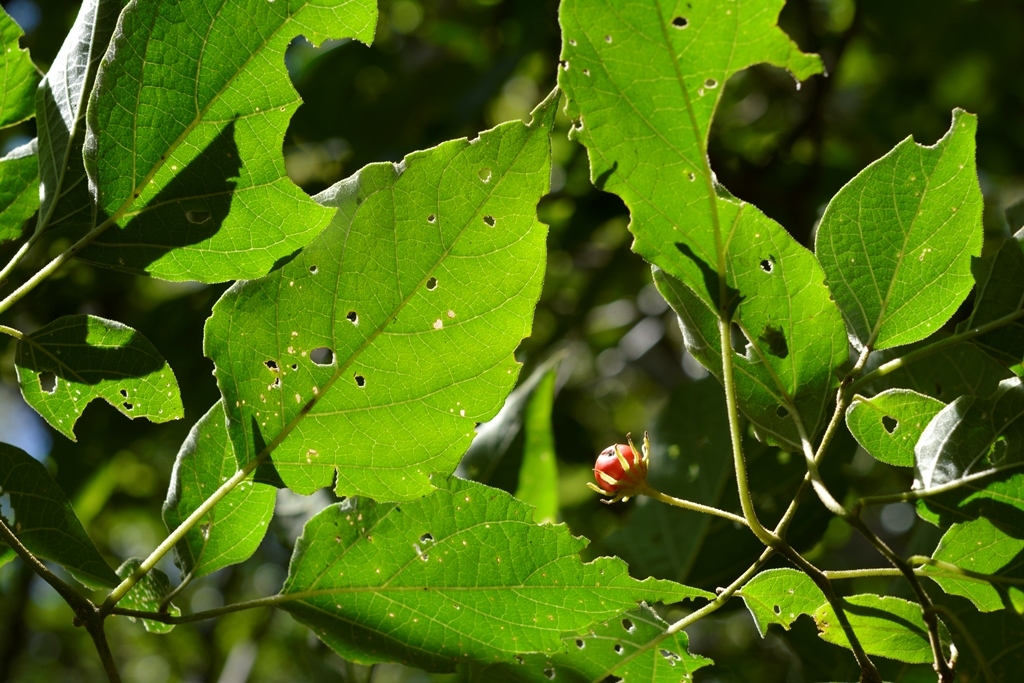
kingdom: Plantae
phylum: Tracheophyta
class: Magnoliopsida
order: Solanales
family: Solanaceae
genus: Lycianthes
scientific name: Lycianthes scandens
